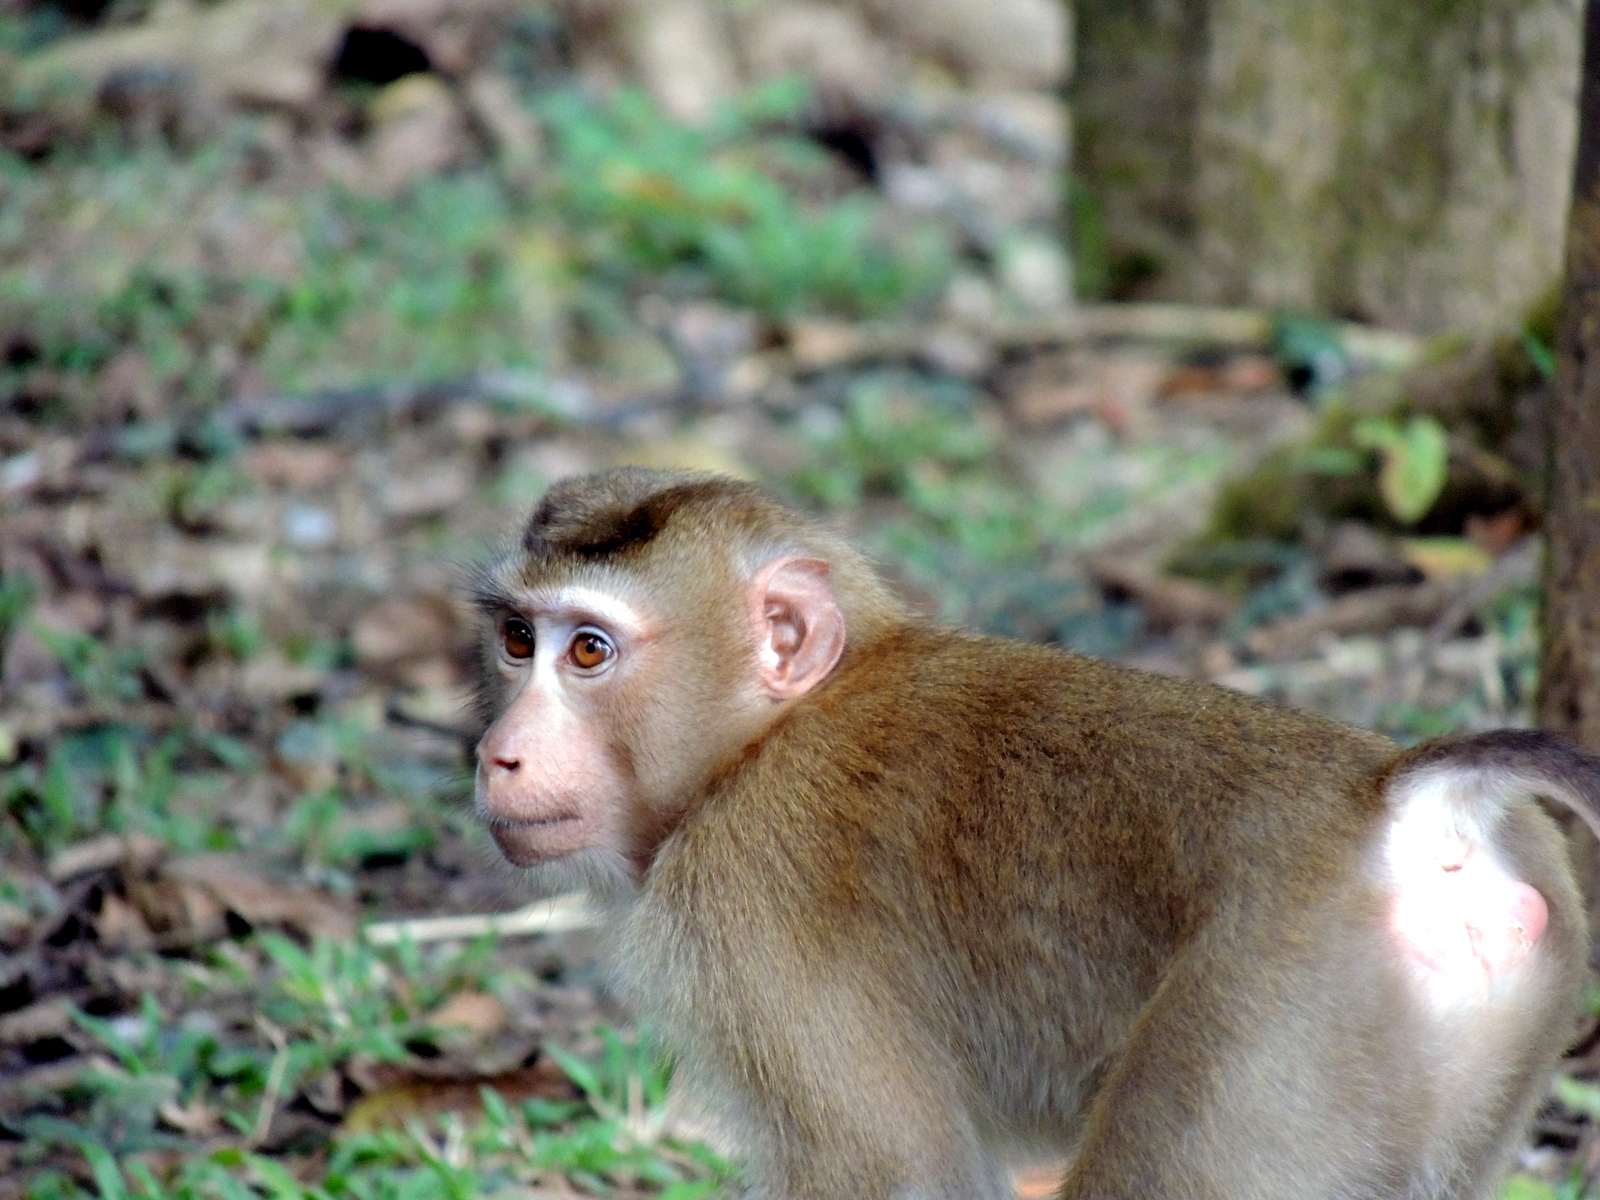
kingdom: Animalia
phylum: Chordata
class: Mammalia
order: Primates
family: Cercopithecidae
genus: Macaca
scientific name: Macaca leonina
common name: Northern pig-tailed macaque
